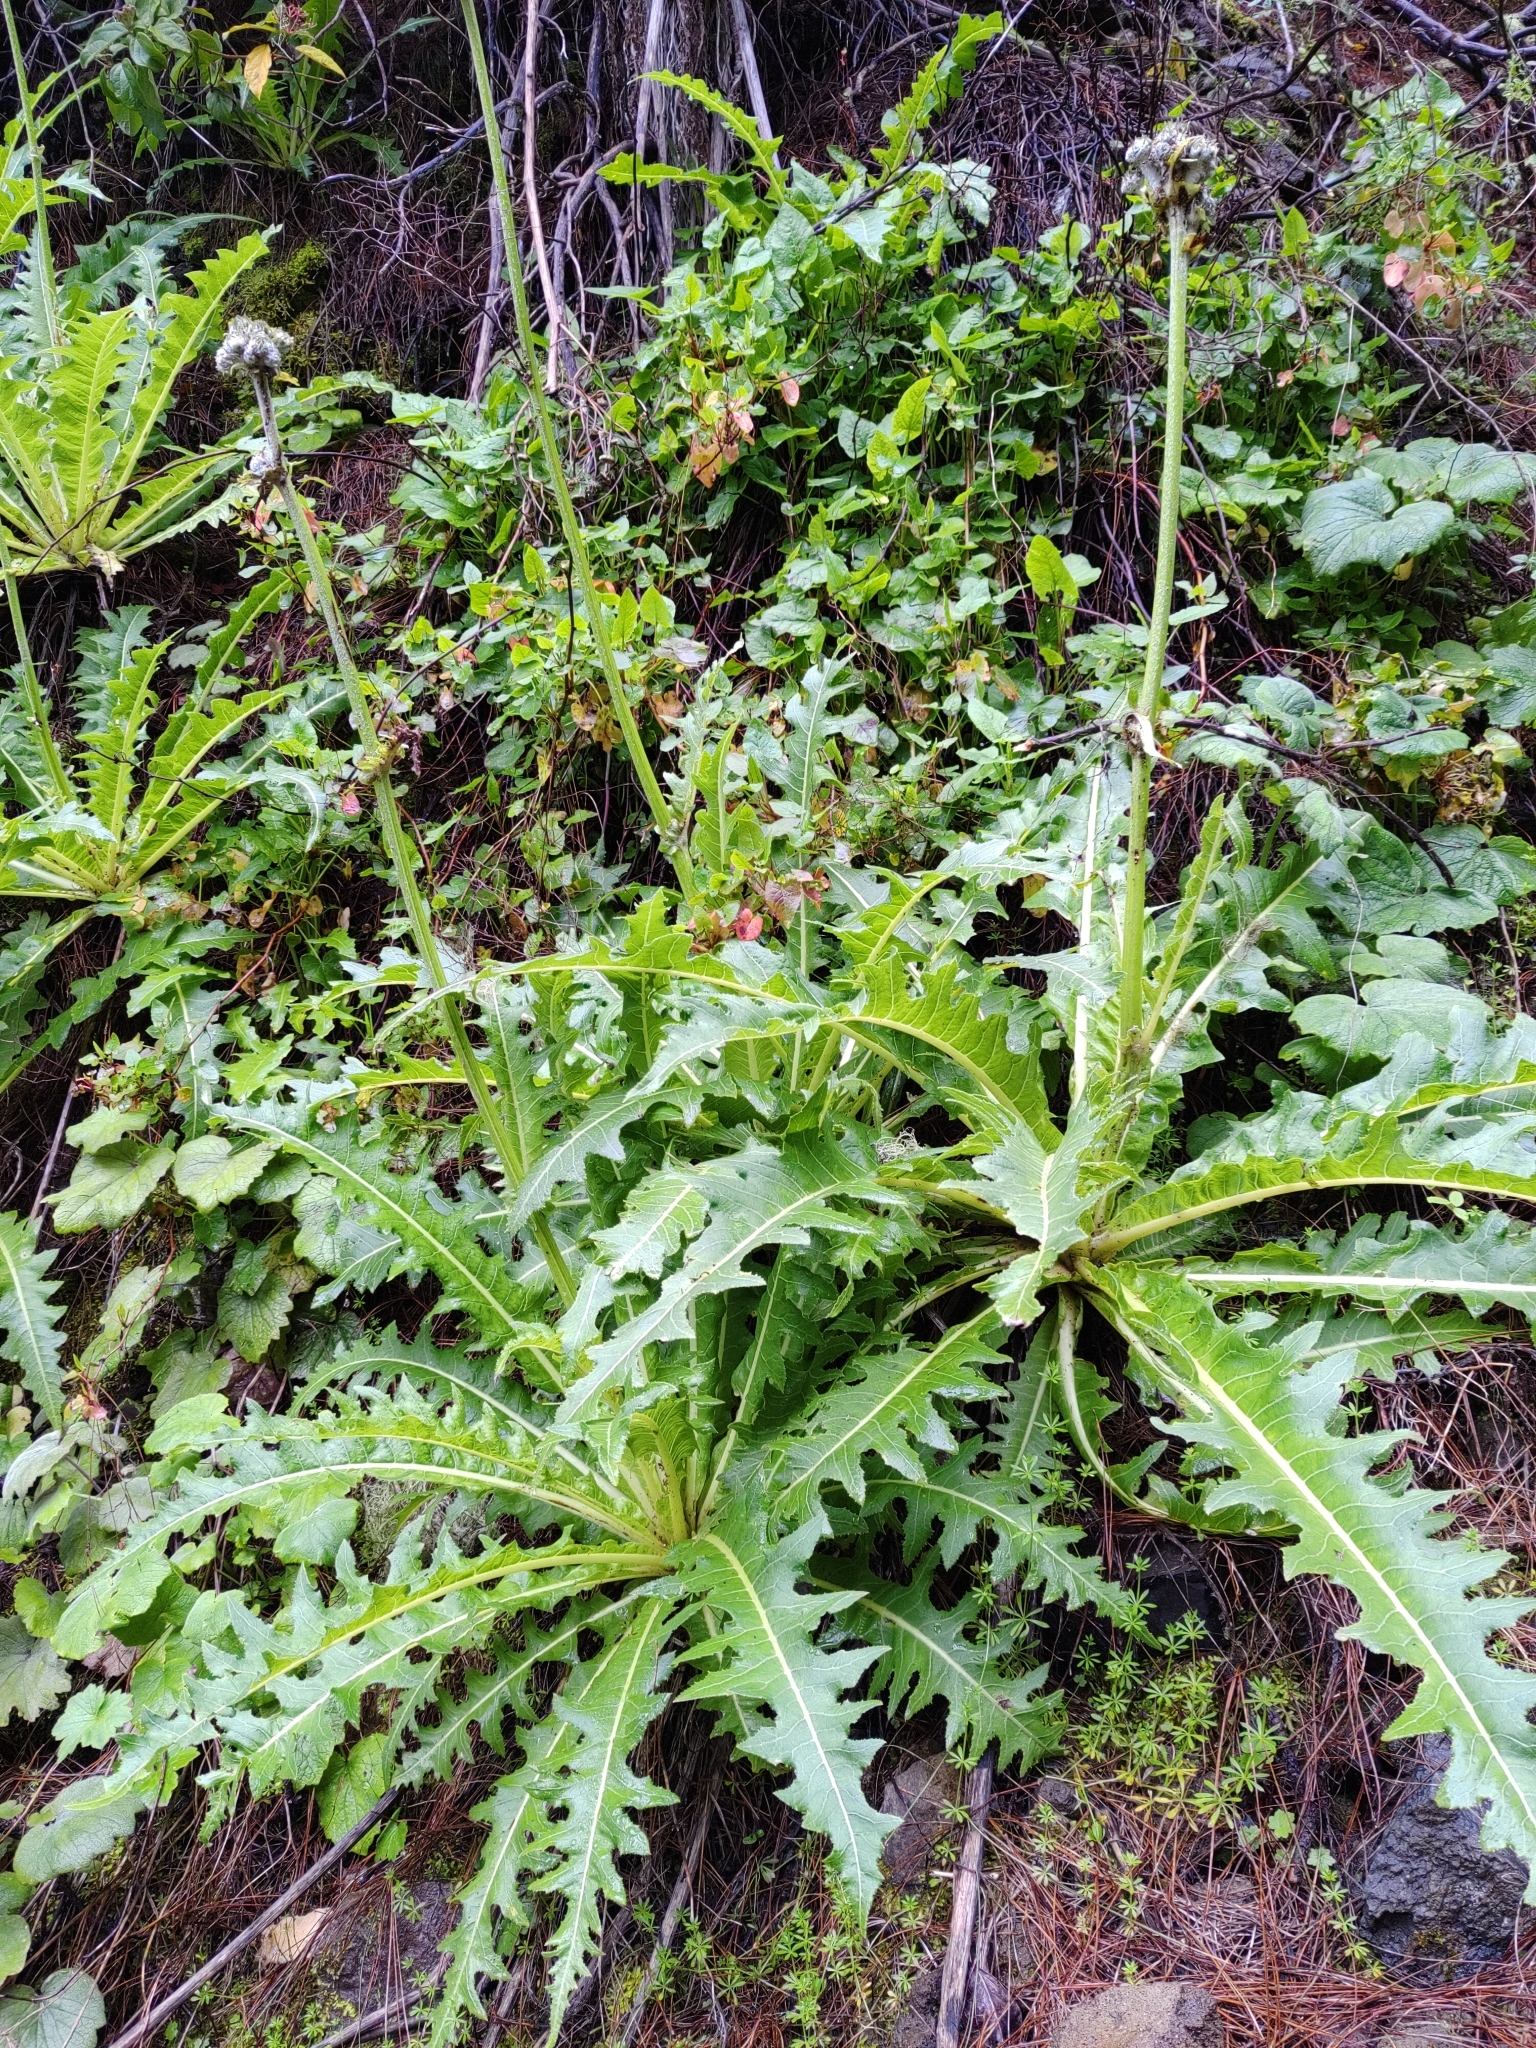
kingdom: Plantae
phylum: Tracheophyta
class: Magnoliopsida
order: Asterales
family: Asteraceae
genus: Sonchus
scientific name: Sonchus acaulis
